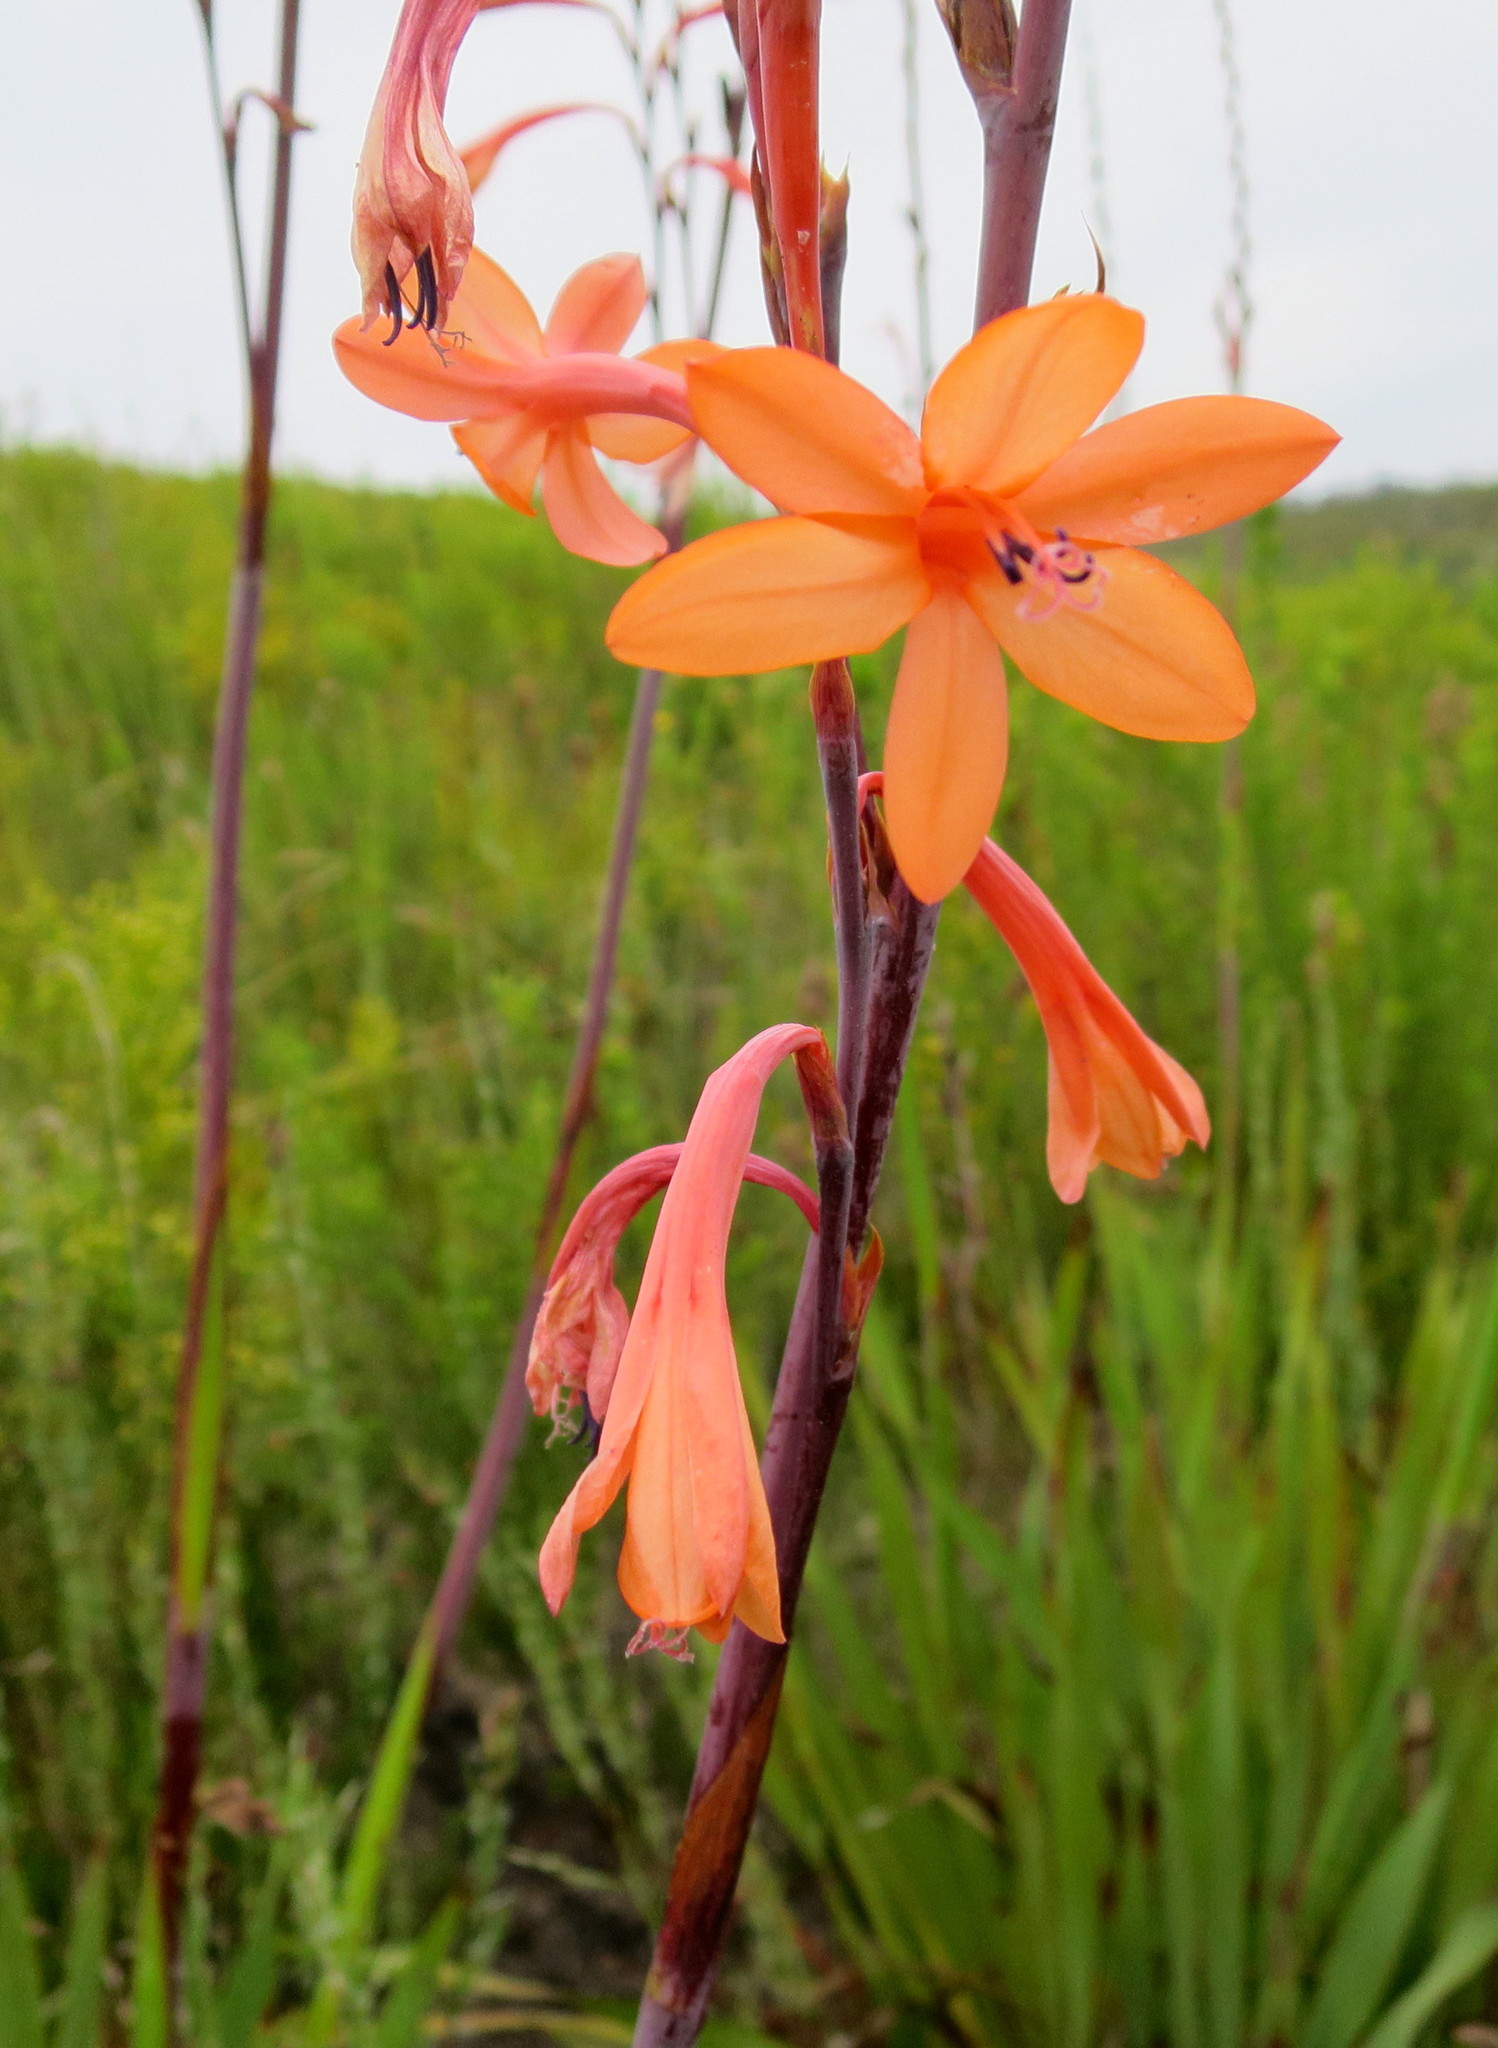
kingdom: Plantae
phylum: Tracheophyta
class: Liliopsida
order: Asparagales
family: Iridaceae
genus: Watsonia
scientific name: Watsonia pillansii
